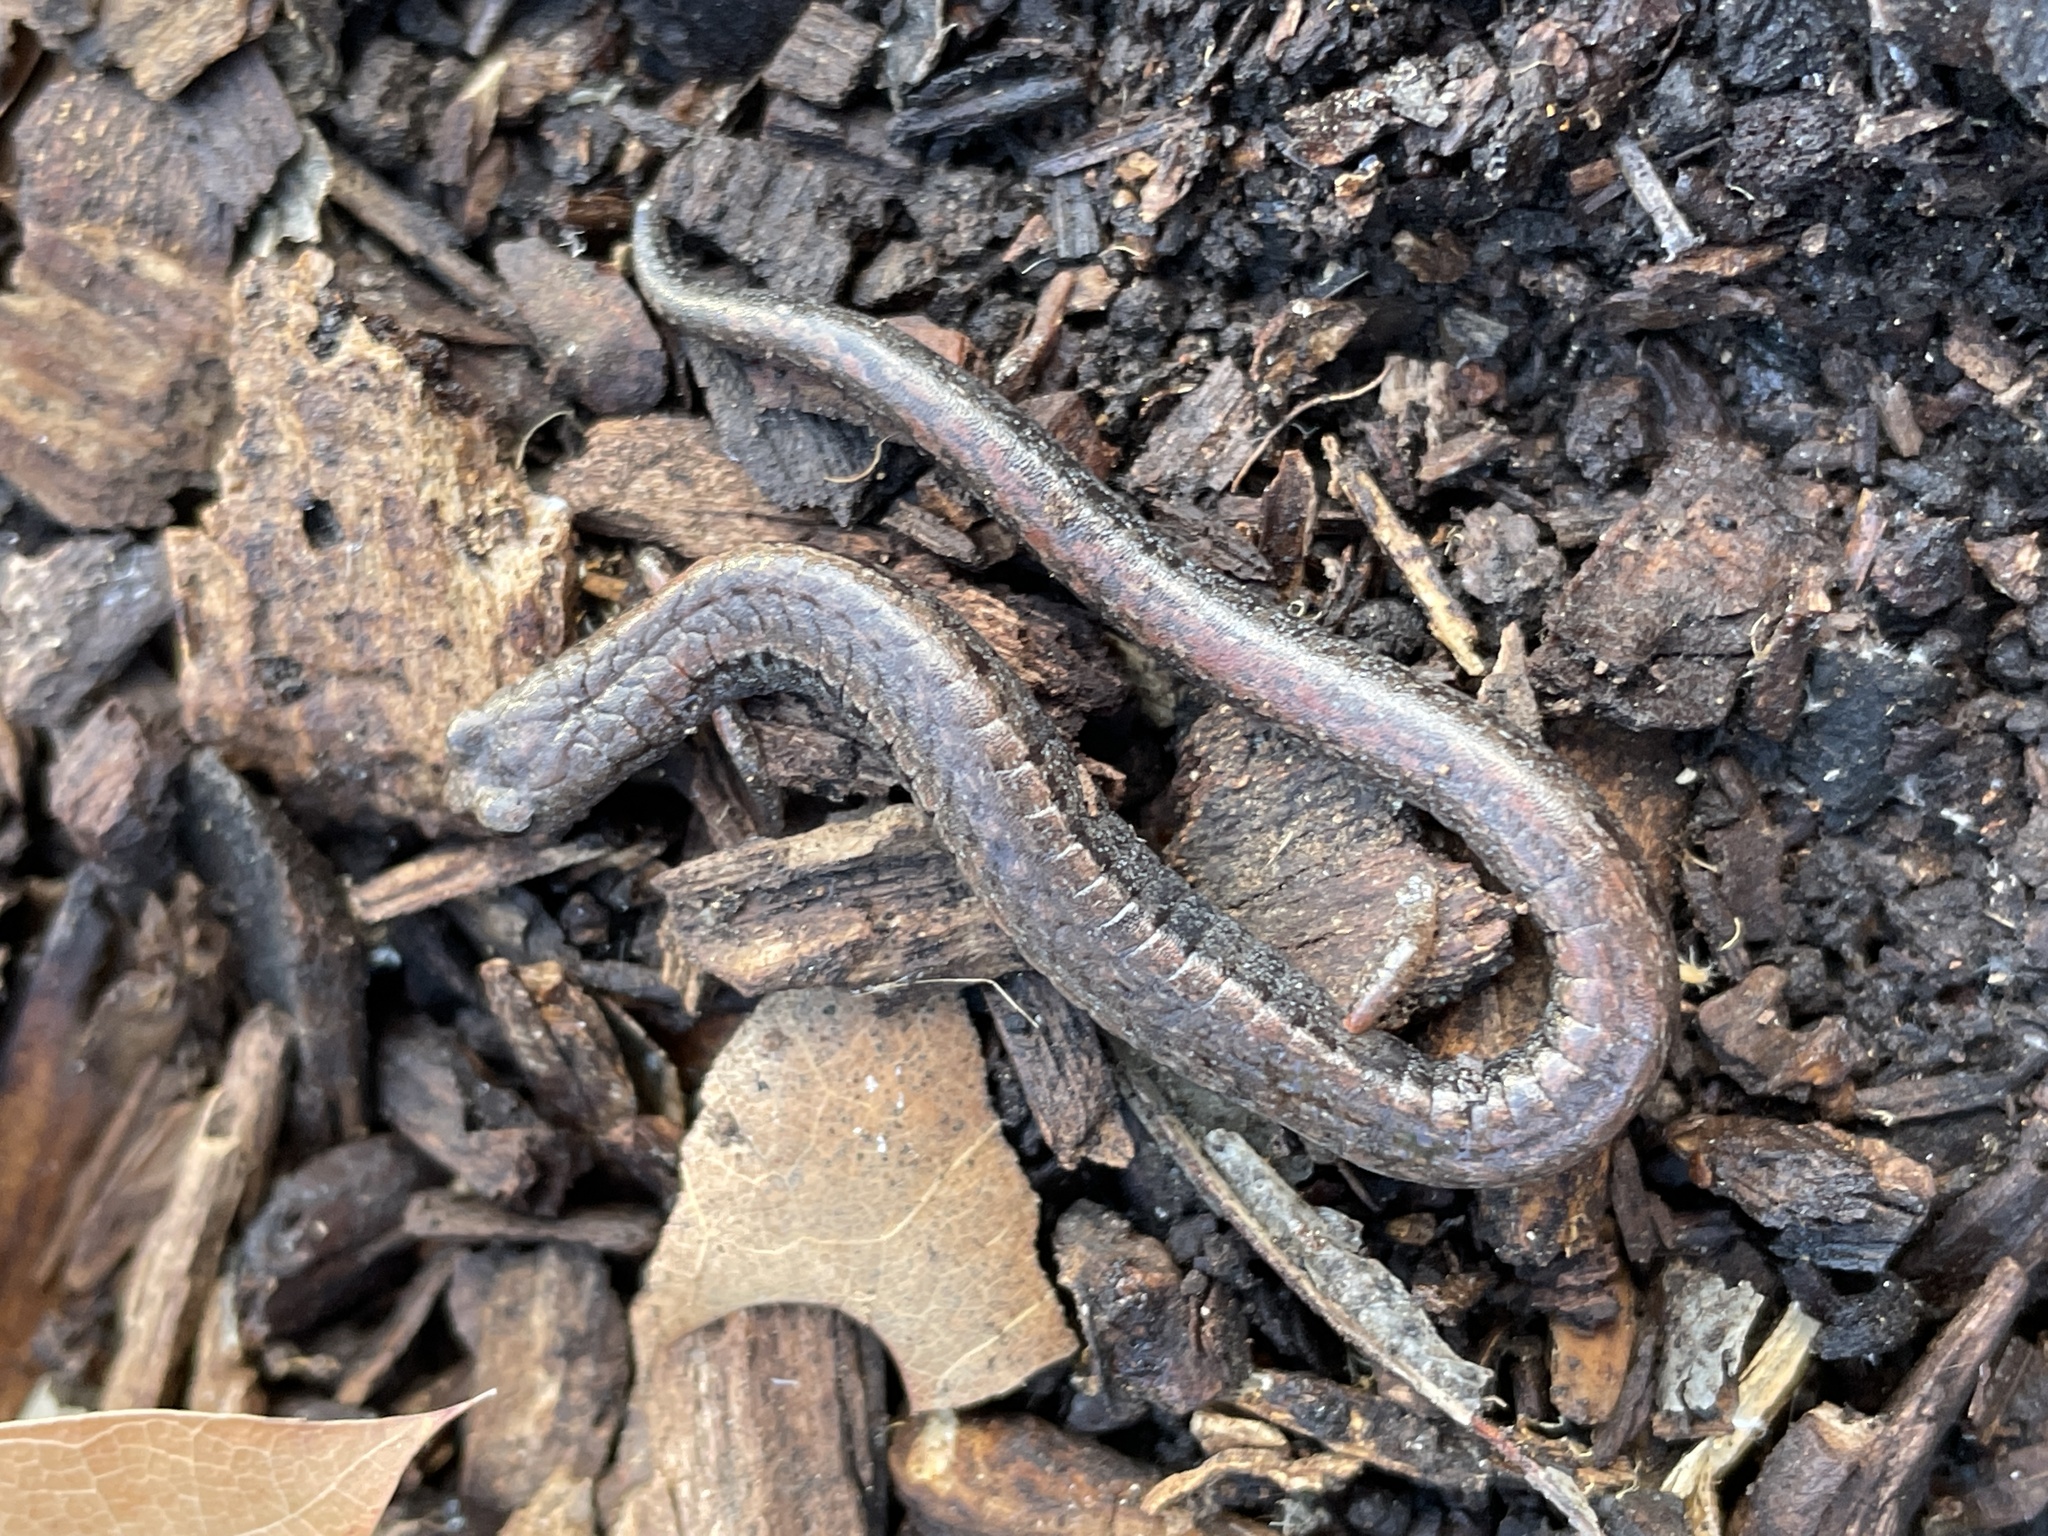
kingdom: Animalia
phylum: Chordata
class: Amphibia
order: Caudata
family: Plethodontidae
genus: Batrachoseps
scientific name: Batrachoseps attenuatus
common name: California slender salamander
